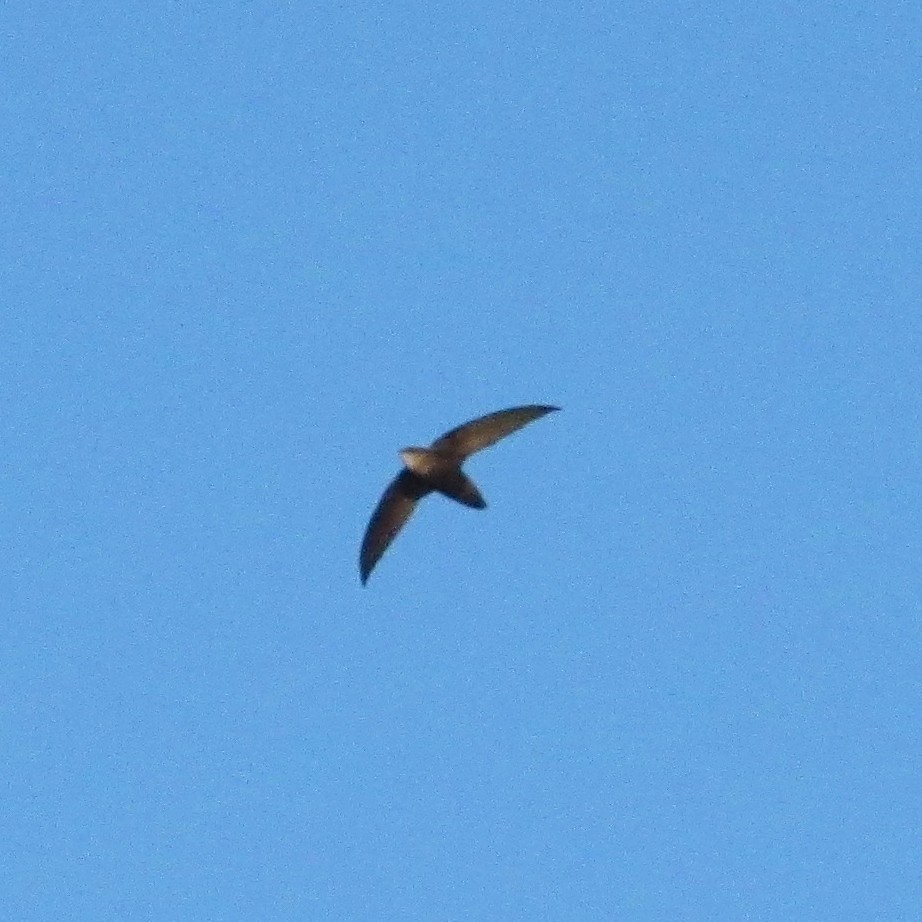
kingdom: Animalia
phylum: Chordata
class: Aves
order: Apodiformes
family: Apodidae
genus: Chaetura
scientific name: Chaetura meridionalis
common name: Sick's swift
